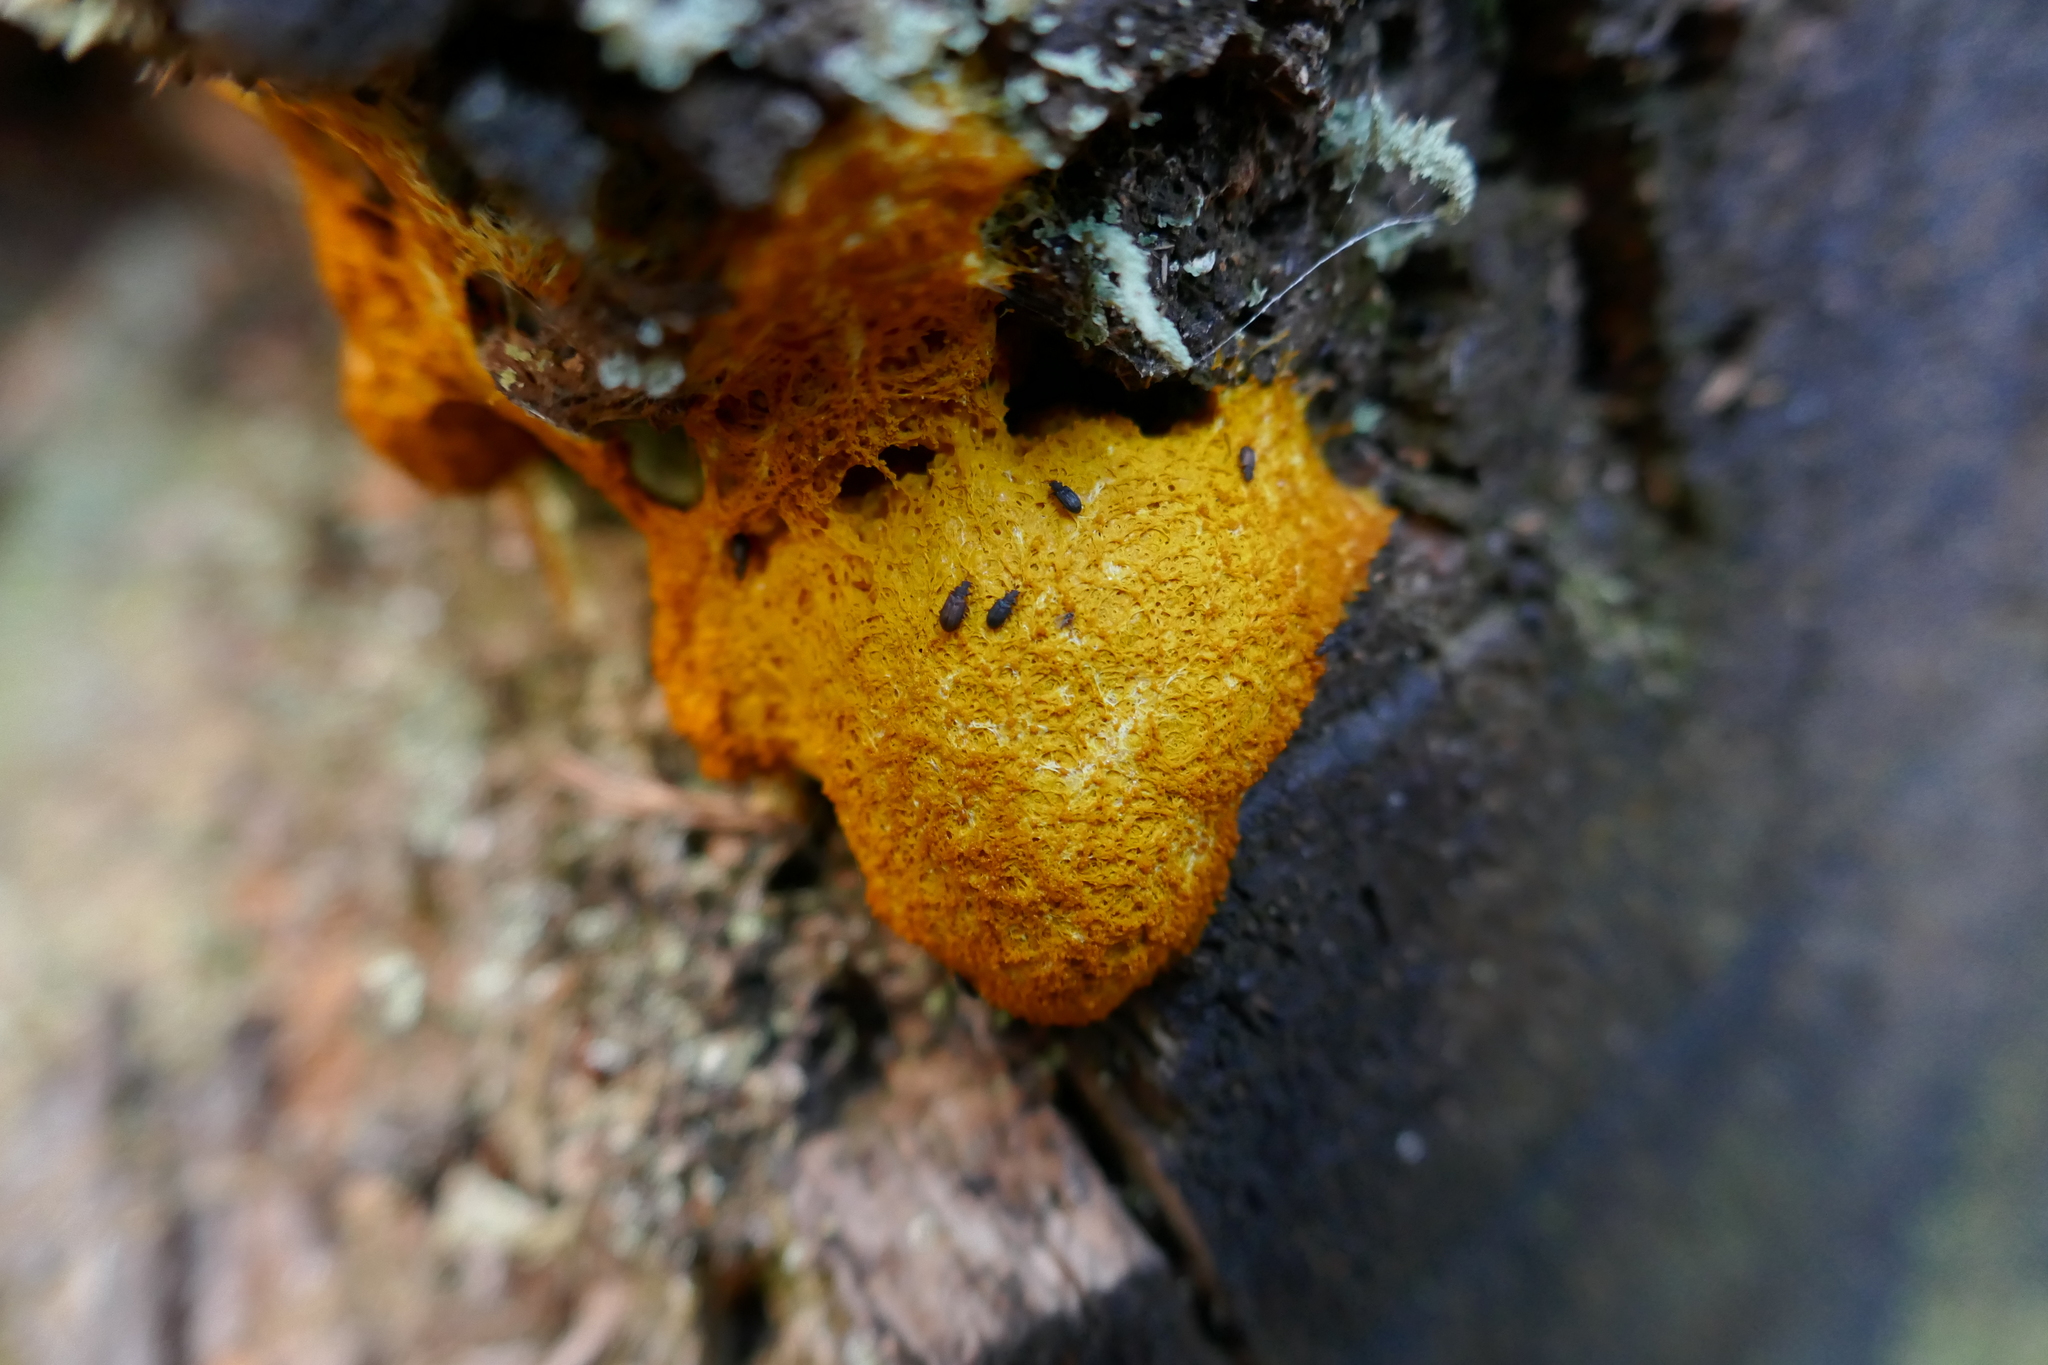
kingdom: Protozoa
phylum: Mycetozoa
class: Myxomycetes
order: Physarales
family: Physaraceae
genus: Fuligo
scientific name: Fuligo septica
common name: Dog vomit slime mold
